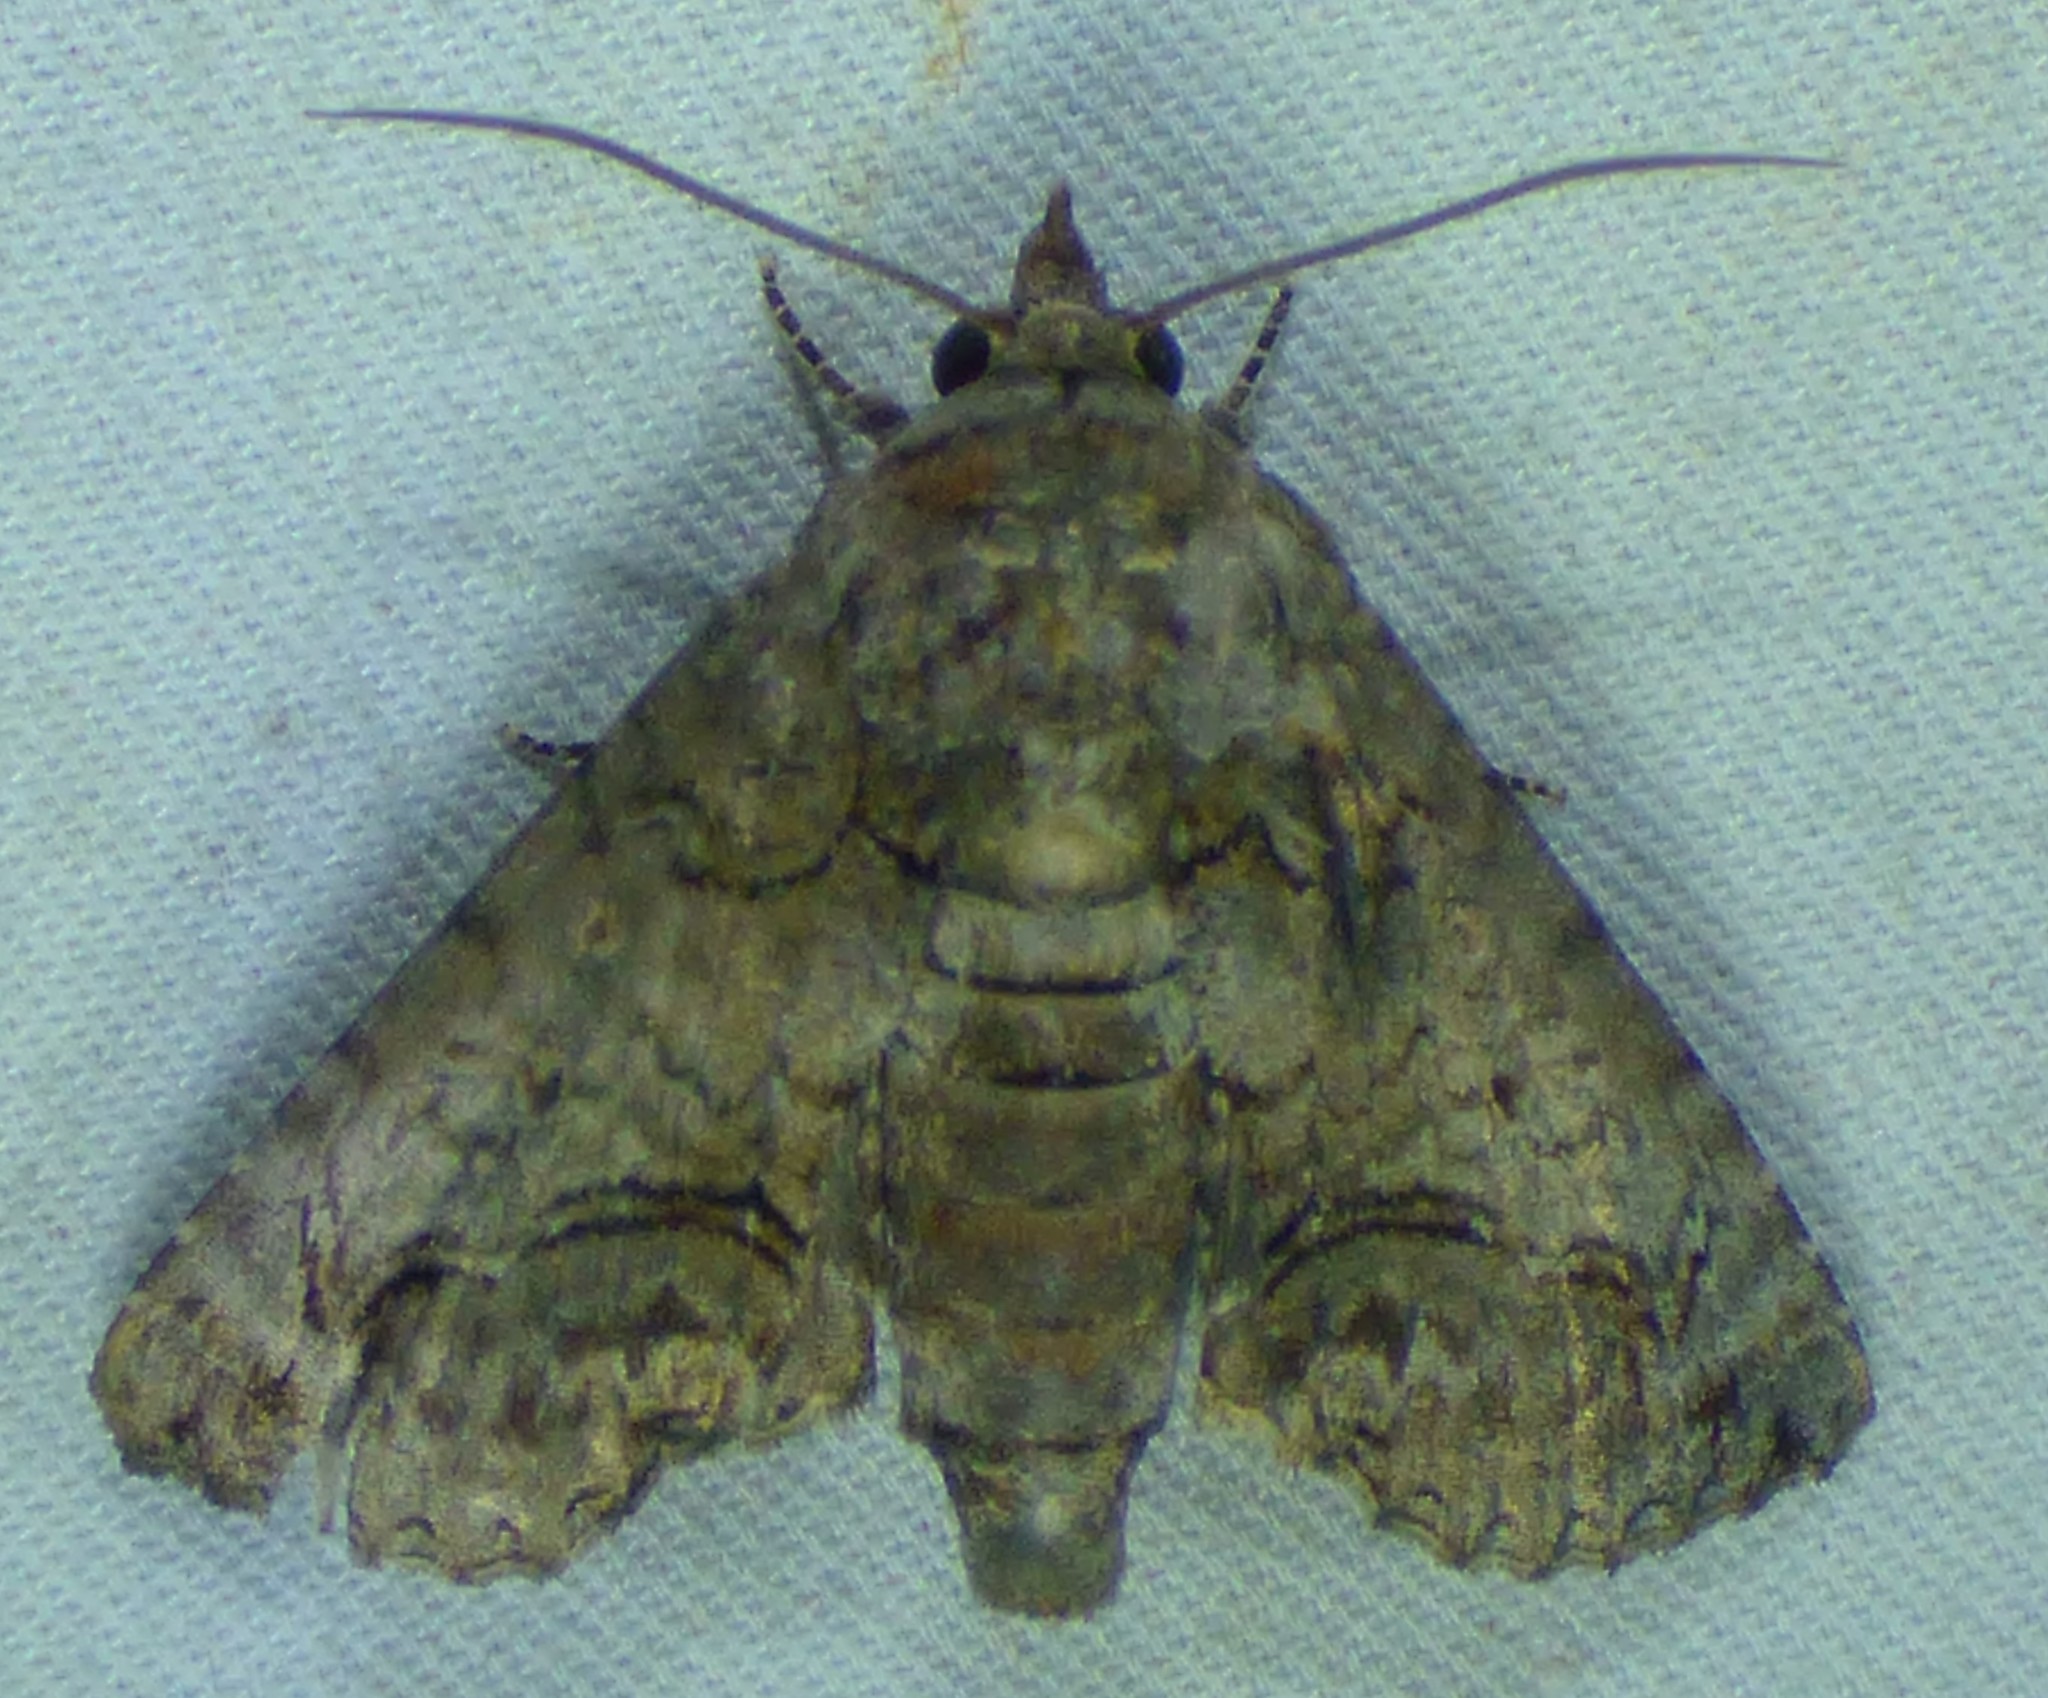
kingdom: Animalia
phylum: Arthropoda
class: Insecta
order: Lepidoptera
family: Euteliidae
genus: Paectes
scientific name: Paectes abrostoloides
